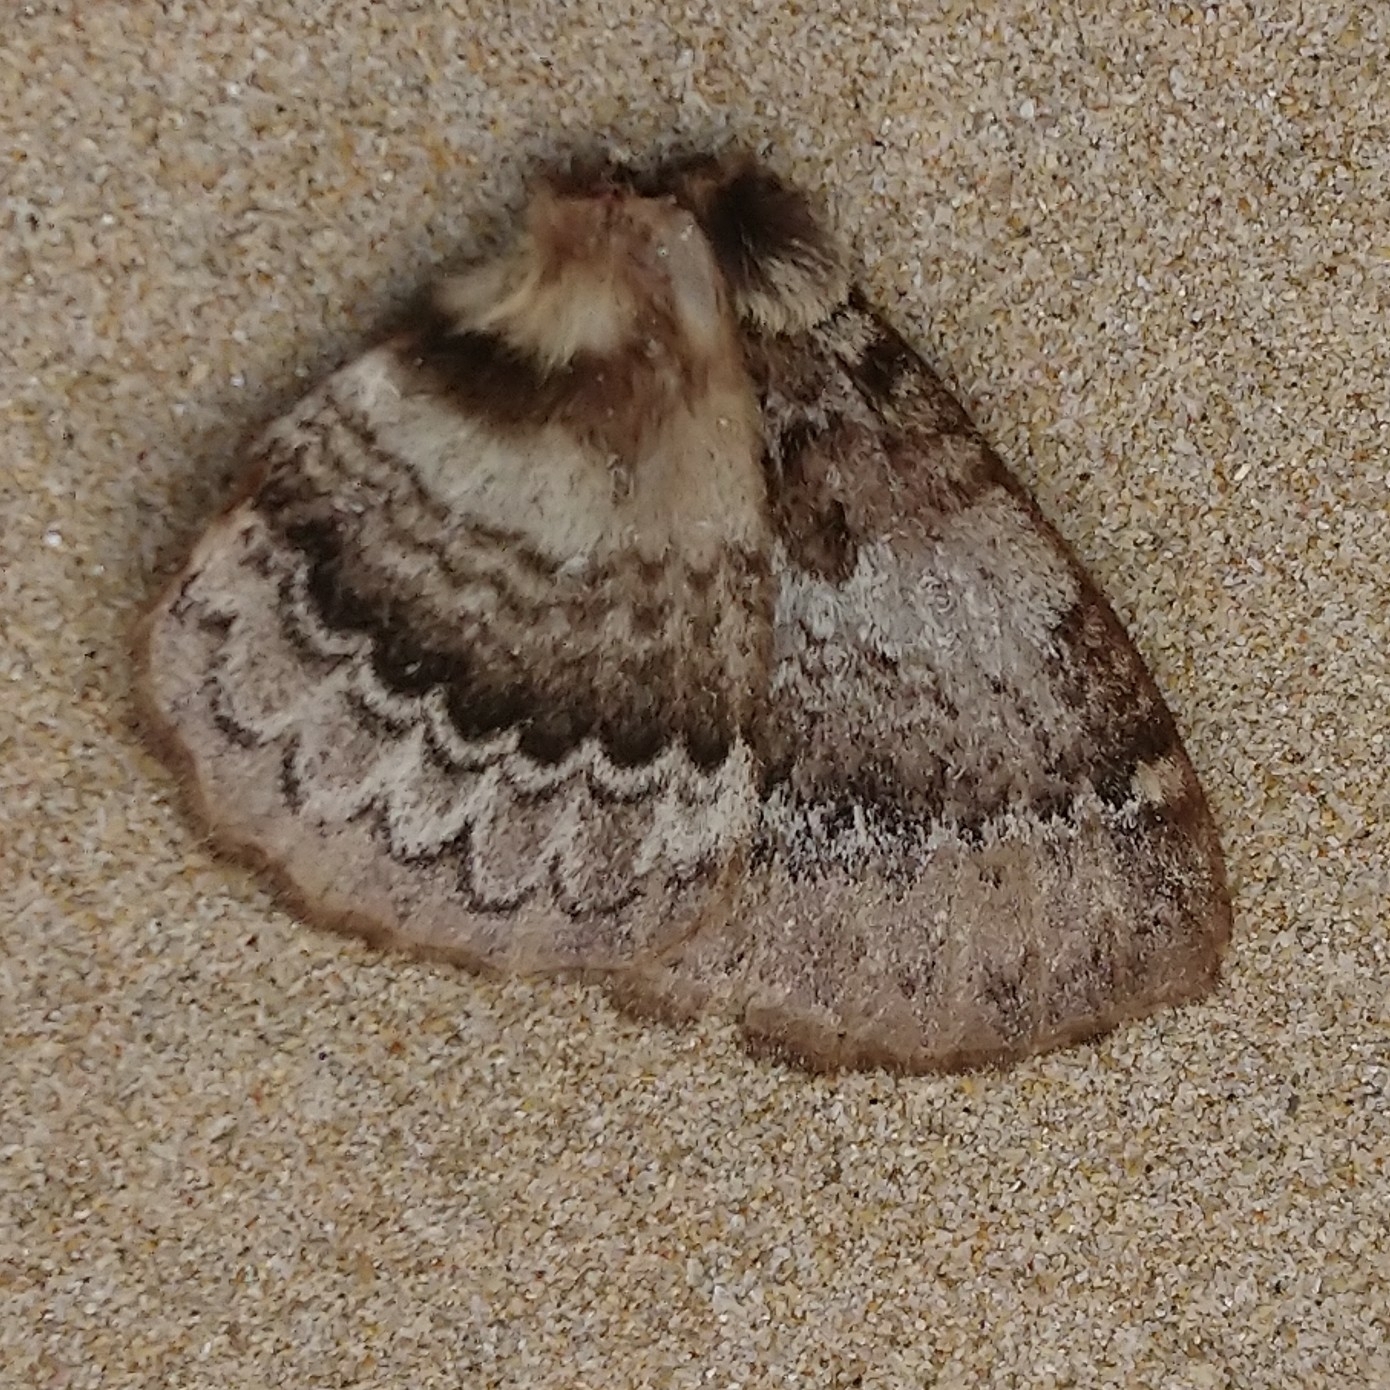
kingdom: Animalia
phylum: Arthropoda
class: Insecta
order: Lepidoptera
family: Eupterotidae
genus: Striphnopteryx
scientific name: Striphnopteryx edulis
